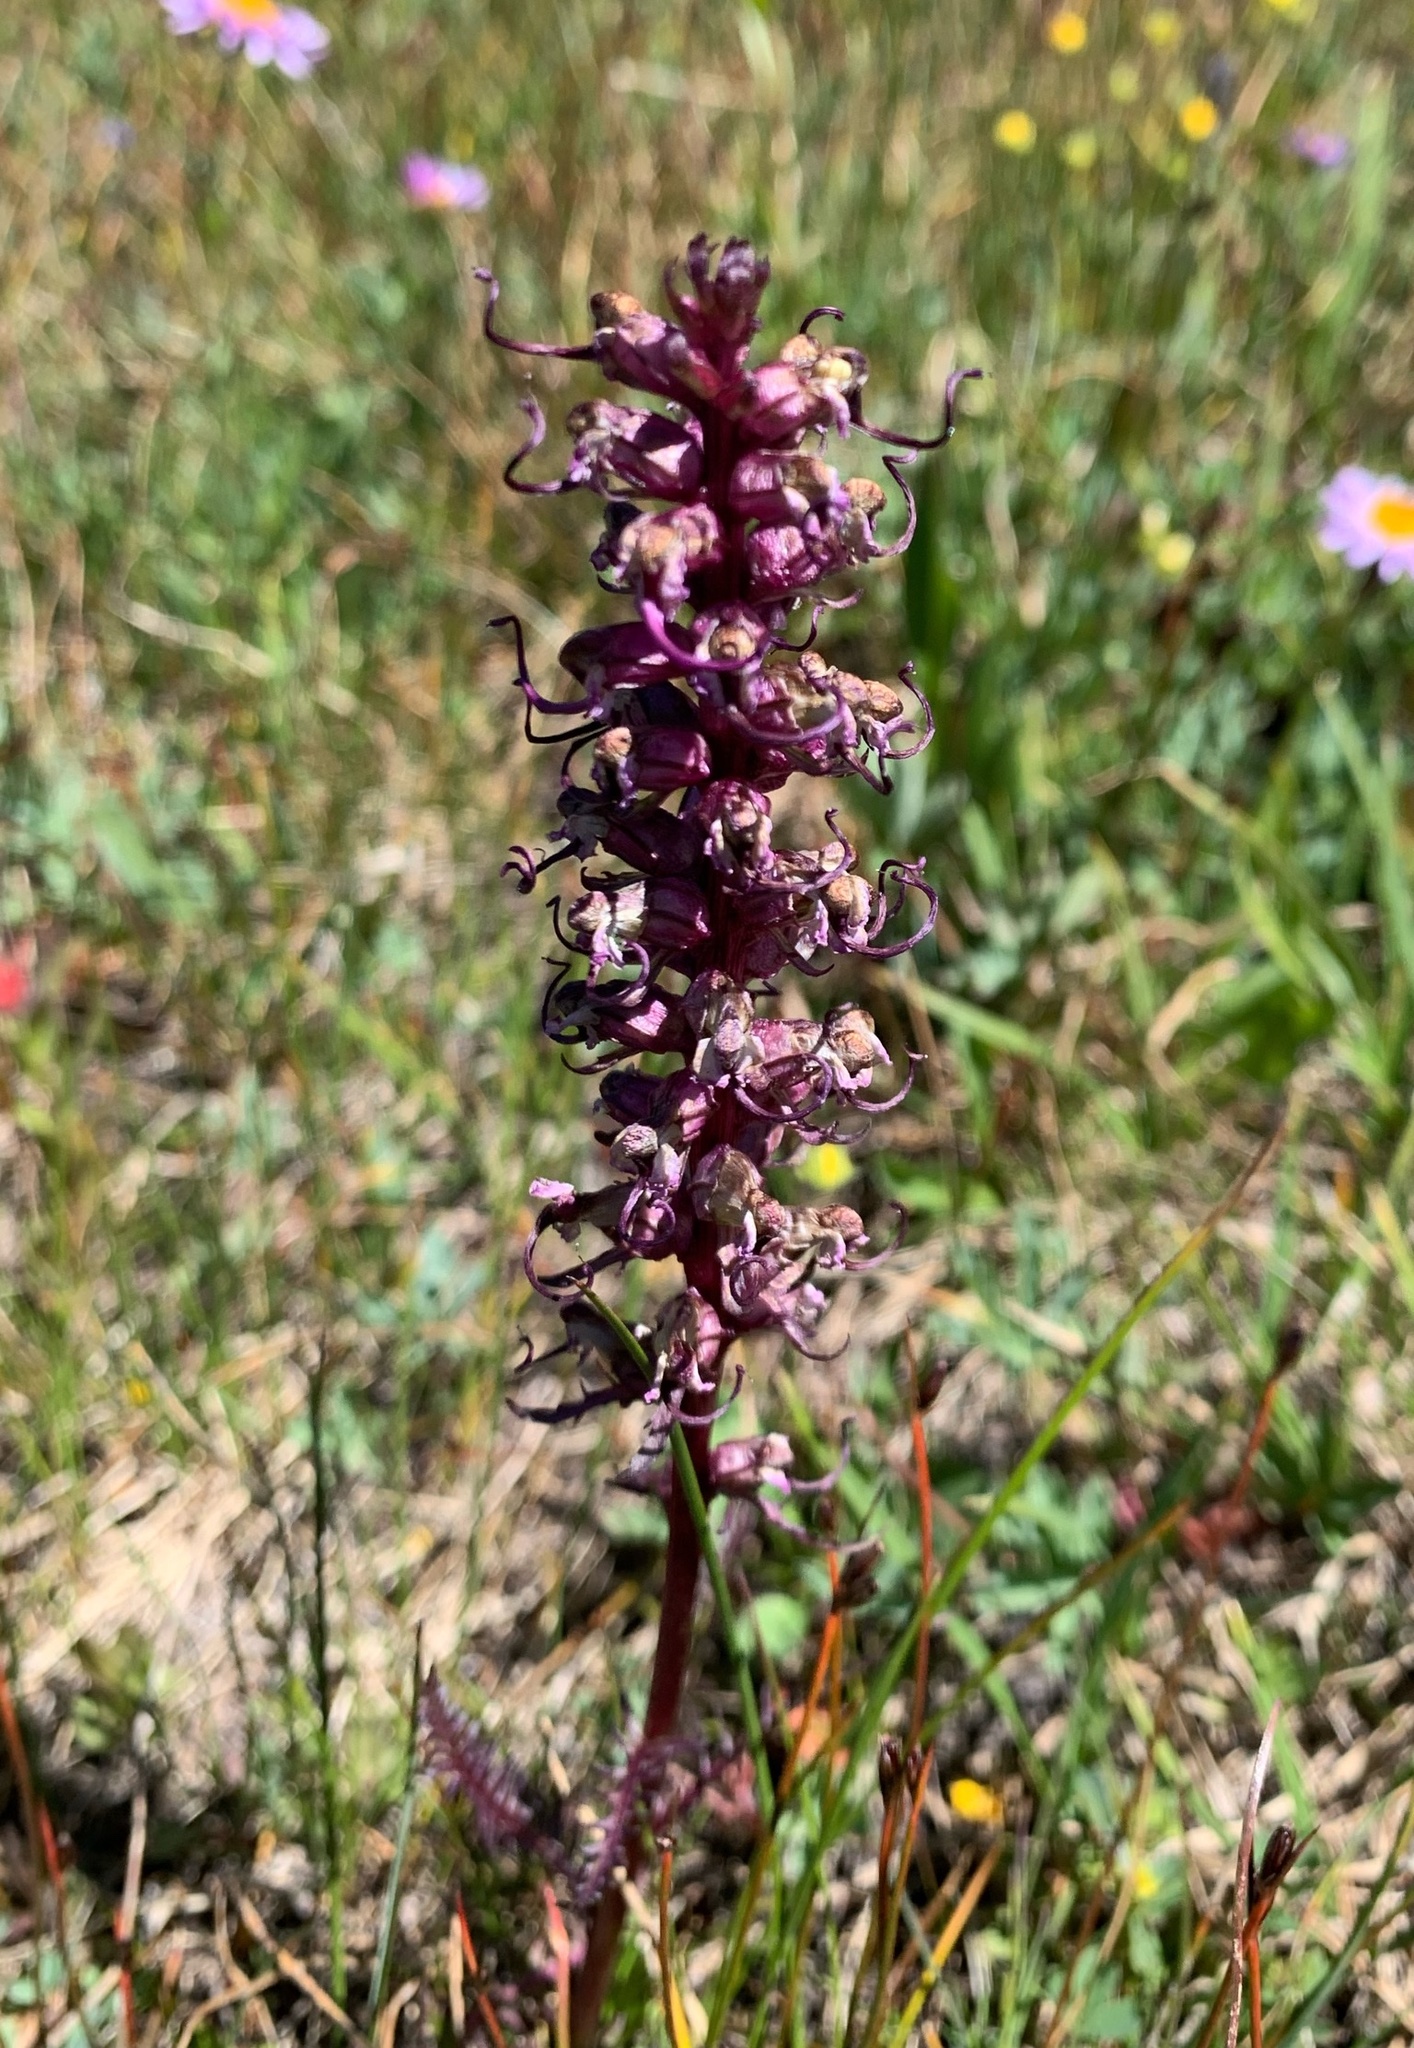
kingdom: Plantae
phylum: Tracheophyta
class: Magnoliopsida
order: Lamiales
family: Orobanchaceae
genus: Pedicularis
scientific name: Pedicularis groenlandica
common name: Elephant's-head
